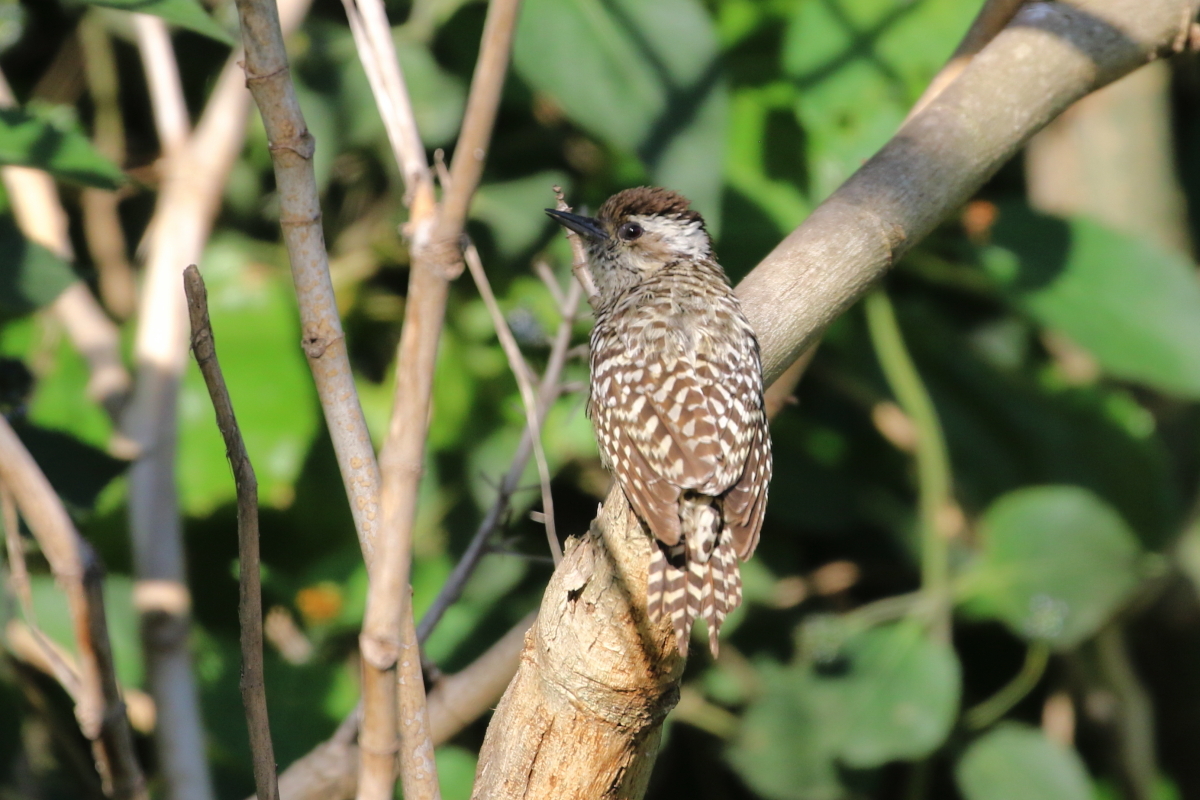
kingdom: Animalia
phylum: Chordata
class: Aves
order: Piciformes
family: Picidae
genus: Veniliornis
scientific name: Veniliornis mixtus
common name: Checkered woodpecker
